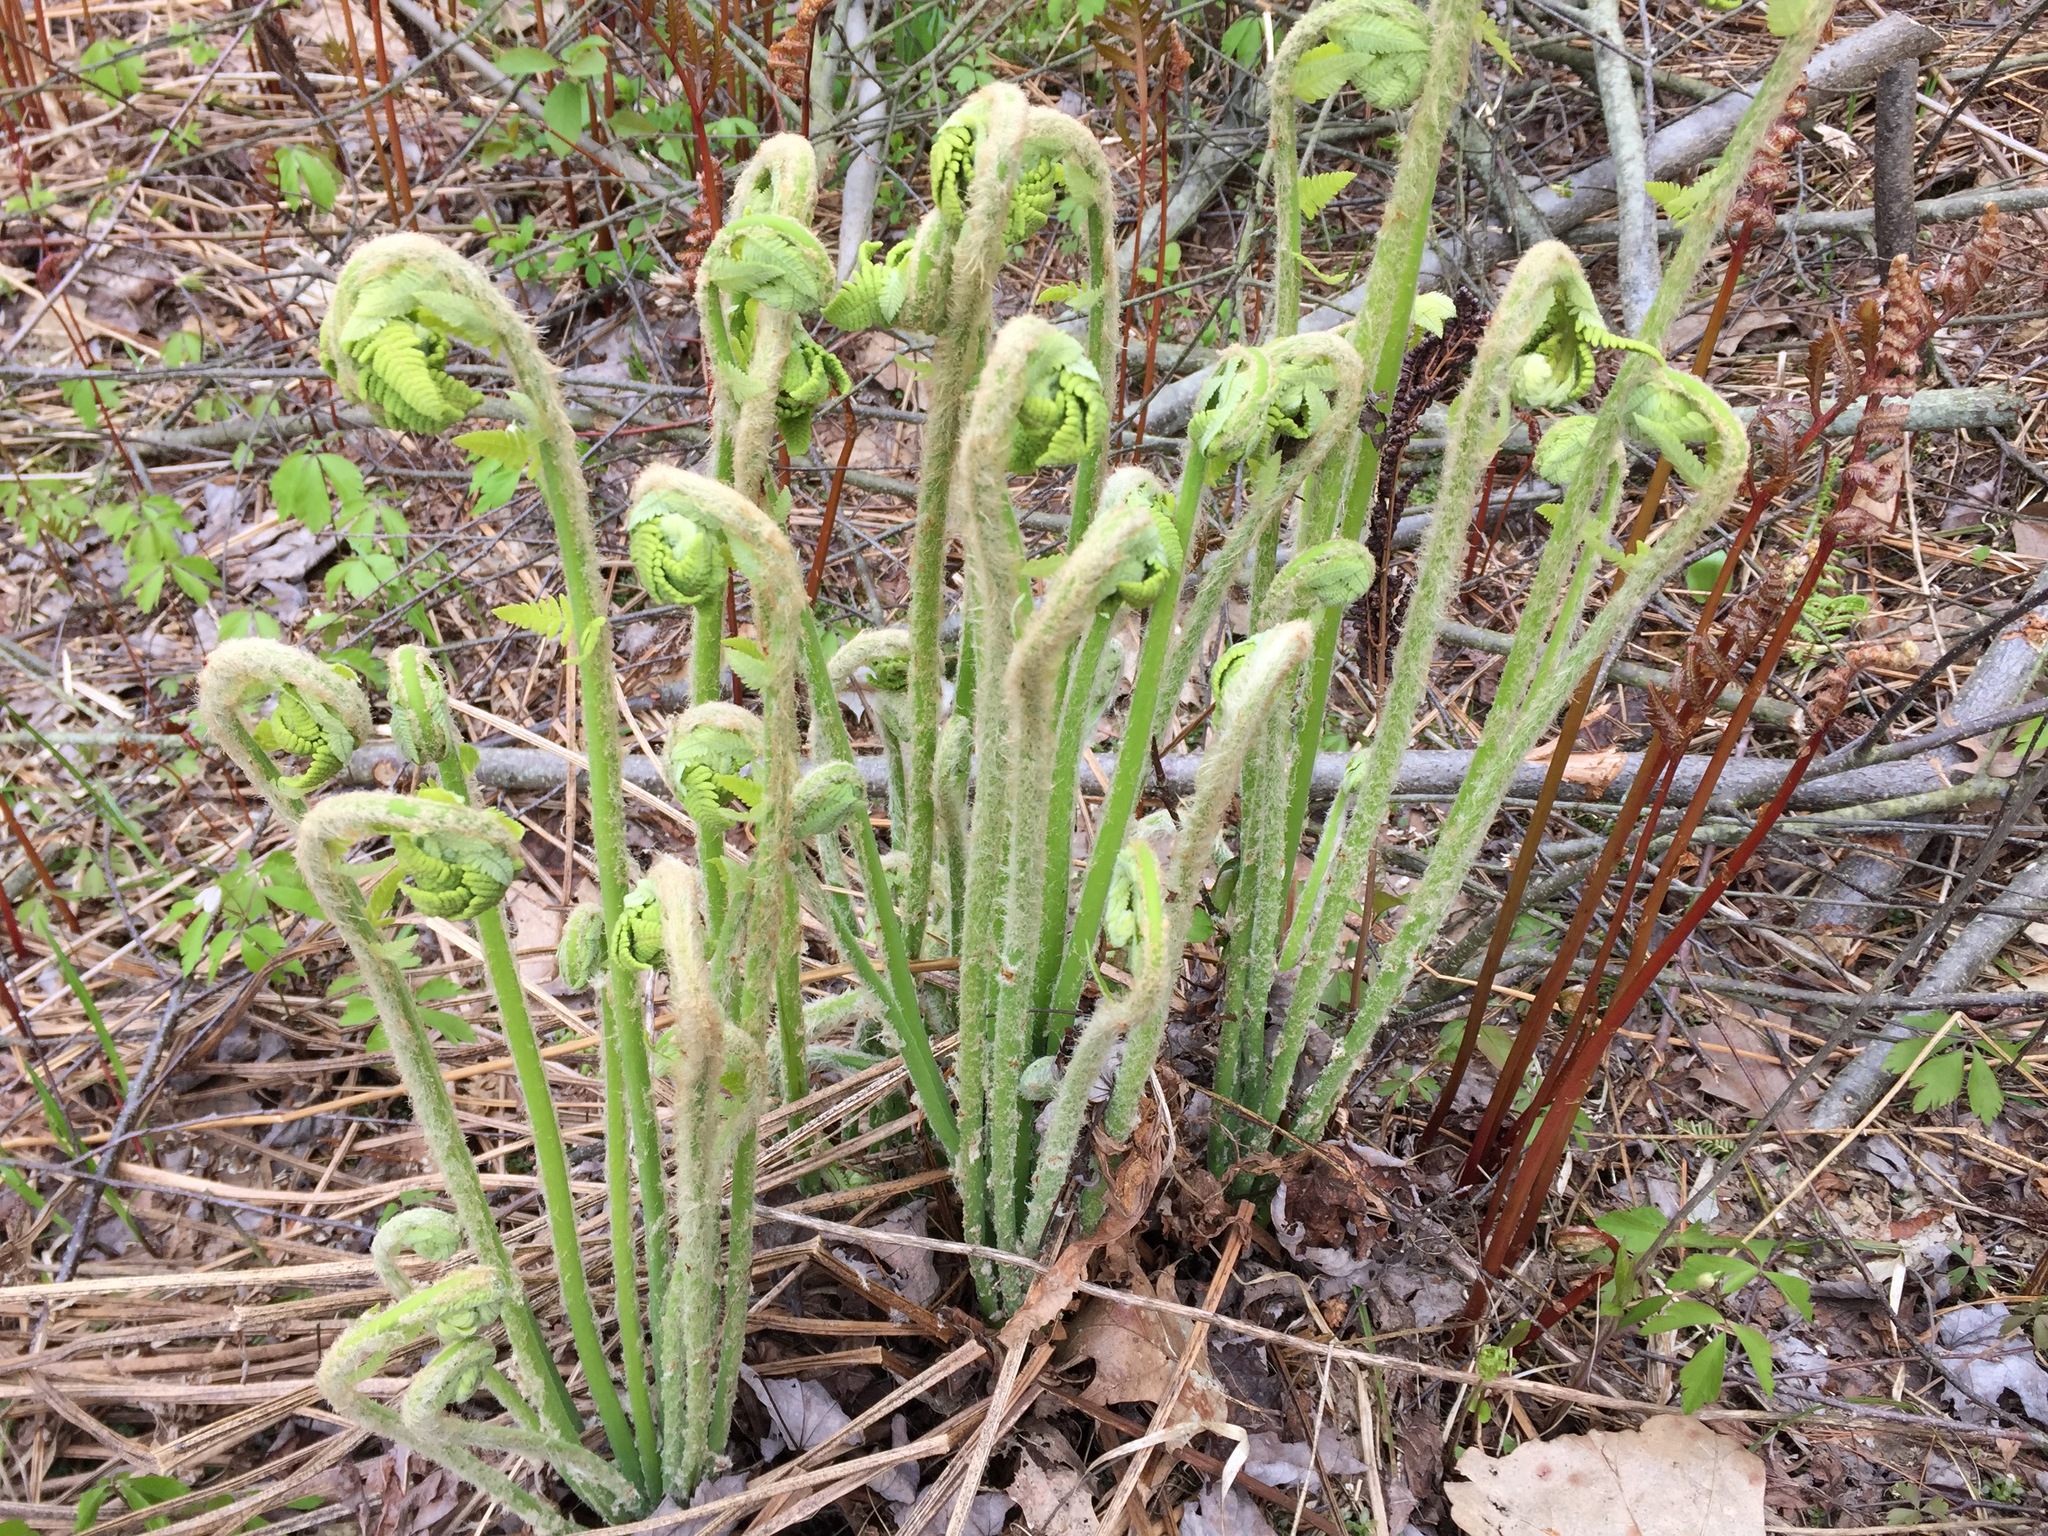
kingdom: Plantae
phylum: Tracheophyta
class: Polypodiopsida
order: Osmundales
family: Osmundaceae
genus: Claytosmunda
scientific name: Claytosmunda claytoniana
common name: Clayton's fern
